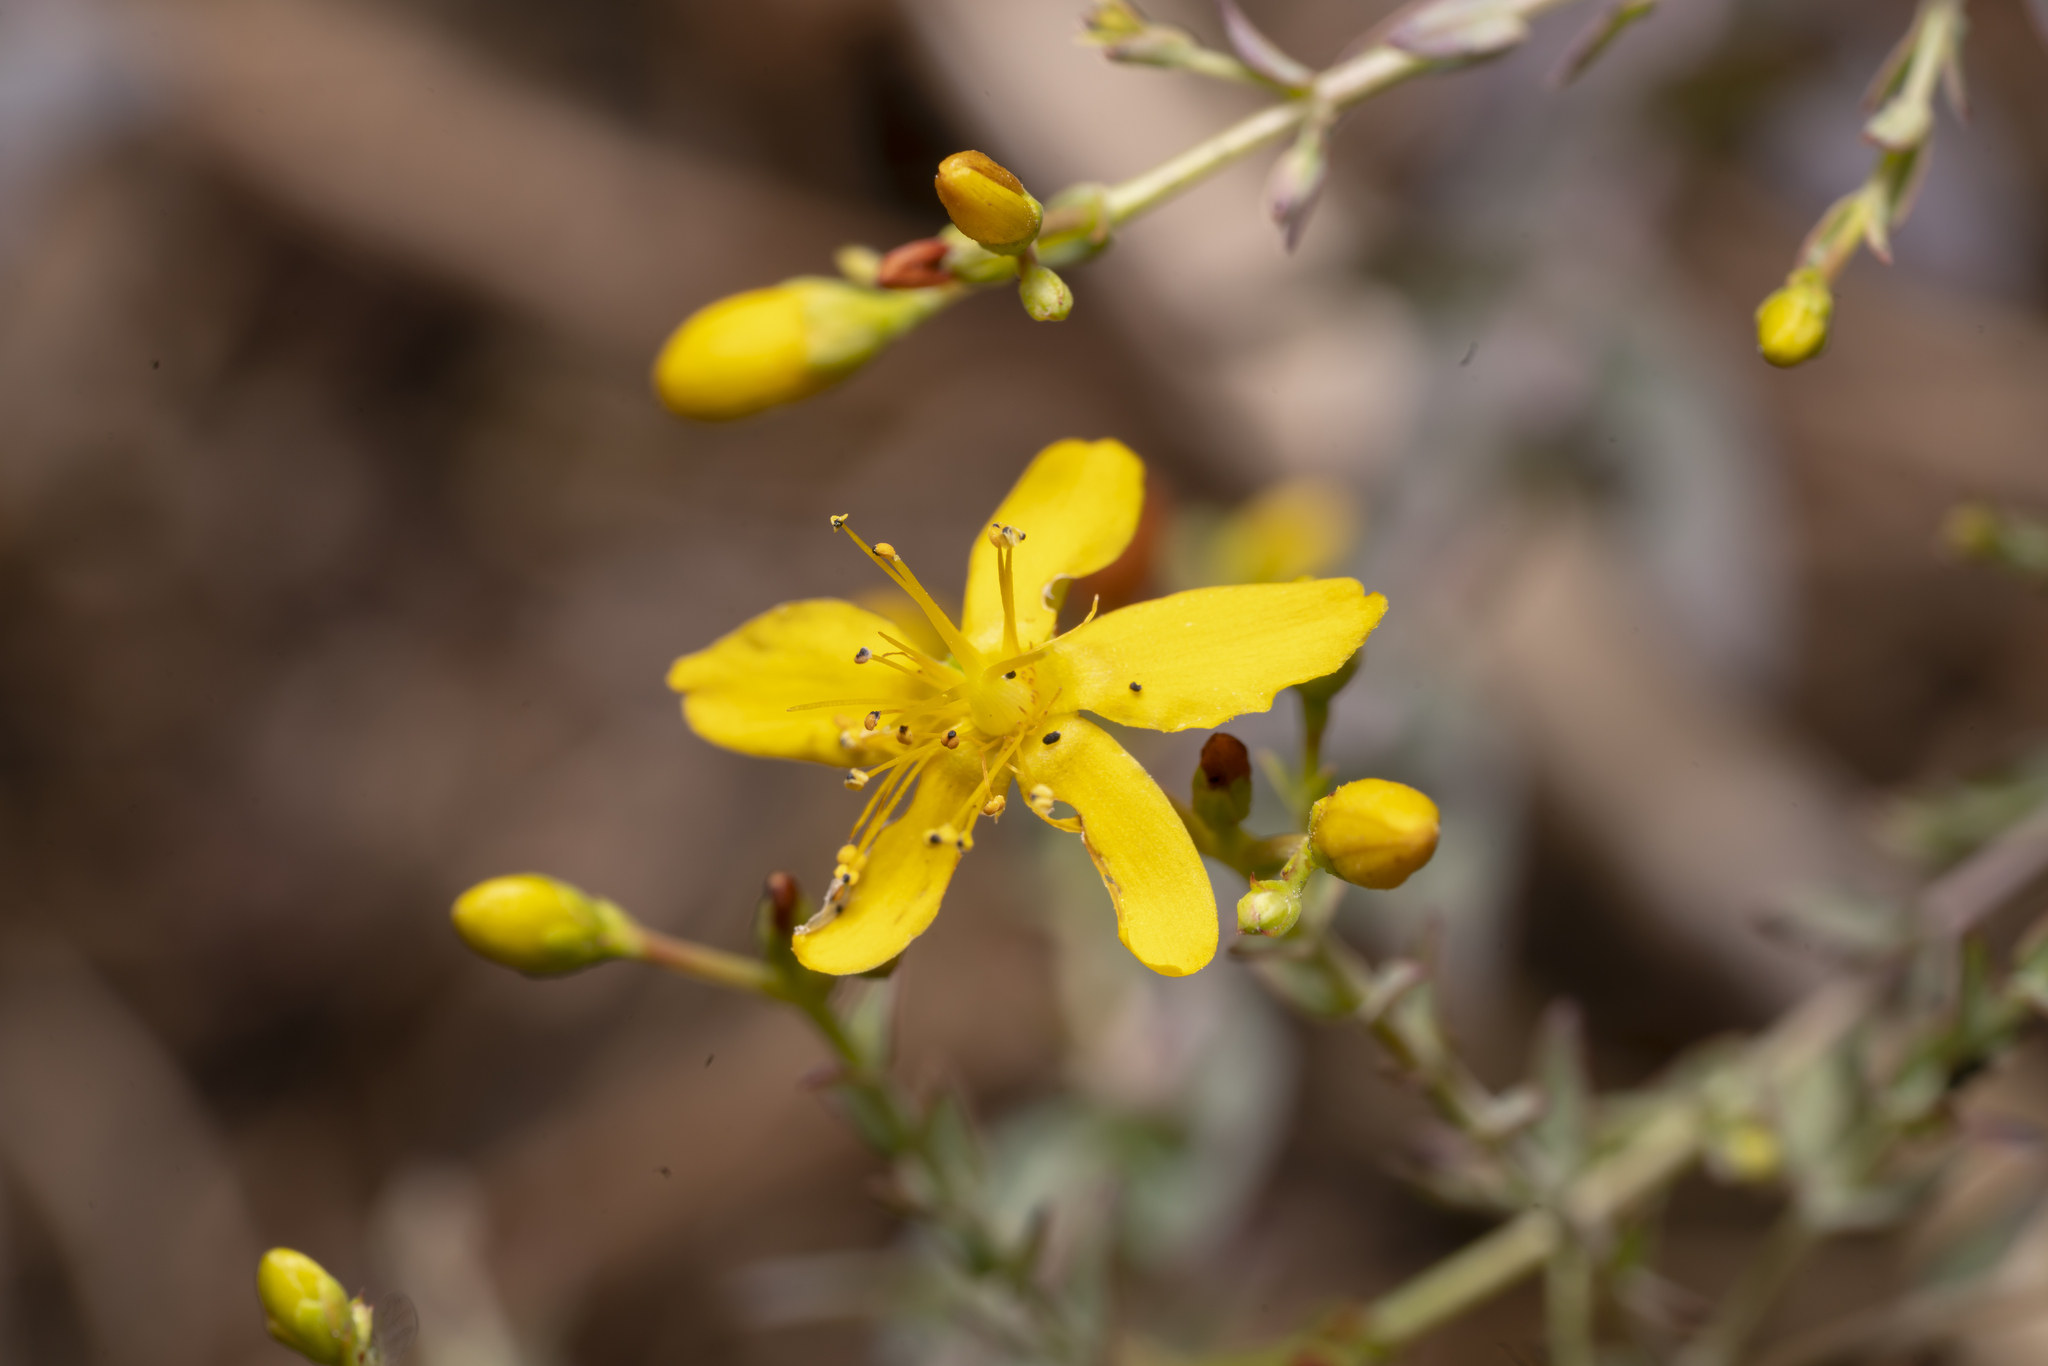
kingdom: Plantae
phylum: Tracheophyta
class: Magnoliopsida
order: Malpighiales
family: Hypericaceae
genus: Hypericum
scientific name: Hypericum triquetrifolium
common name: Tangled hypericum
